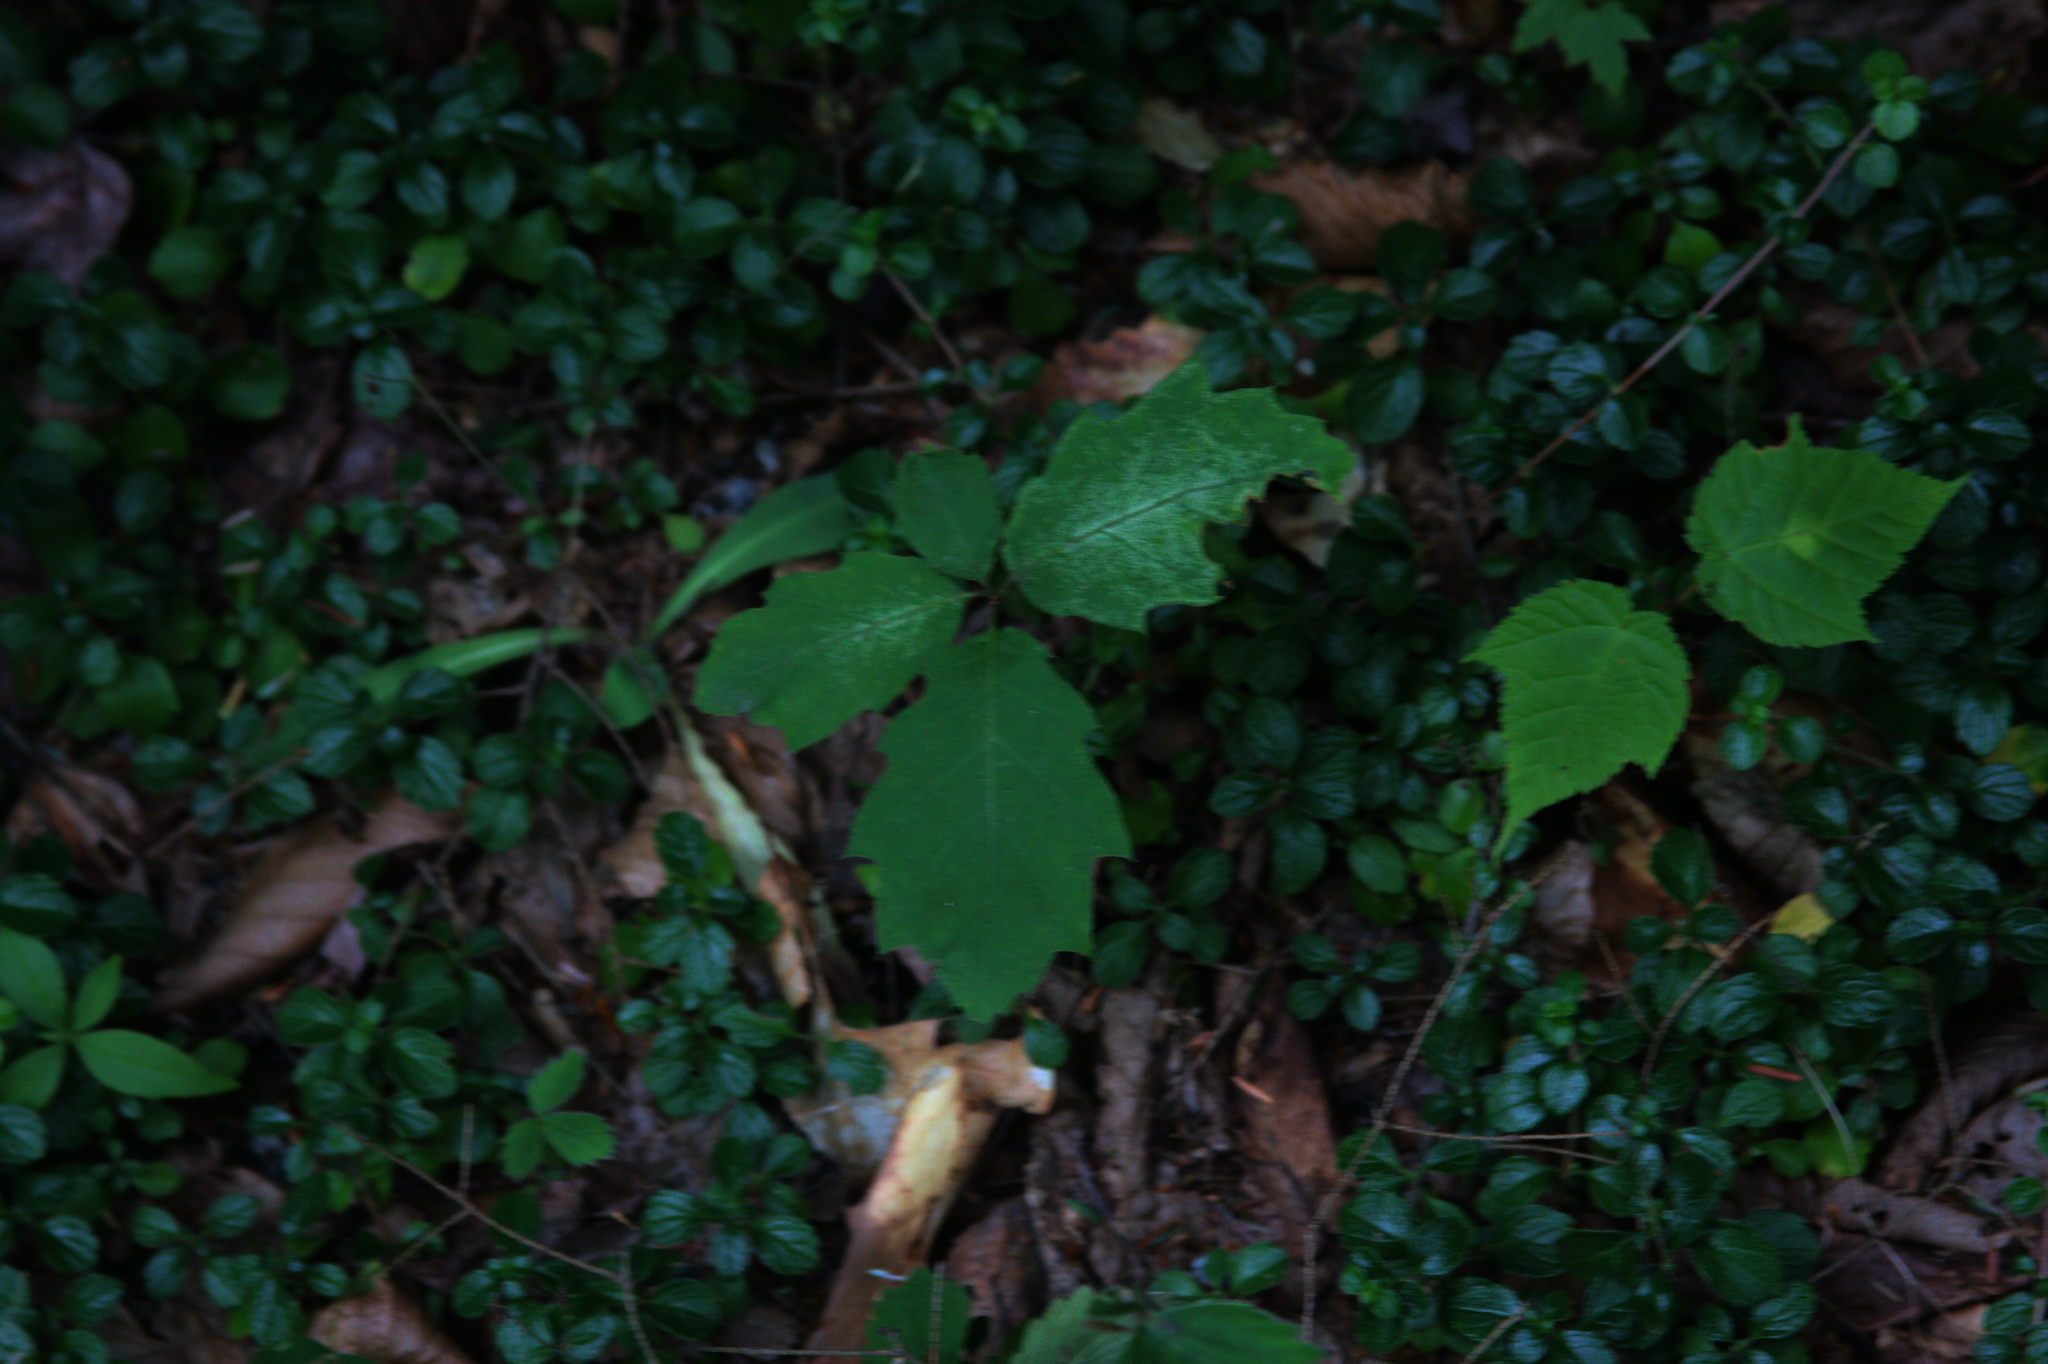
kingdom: Plantae
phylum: Tracheophyta
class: Magnoliopsida
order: Sapindales
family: Sapindaceae
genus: Acer
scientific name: Acer pensylvanicum
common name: Moosewood
